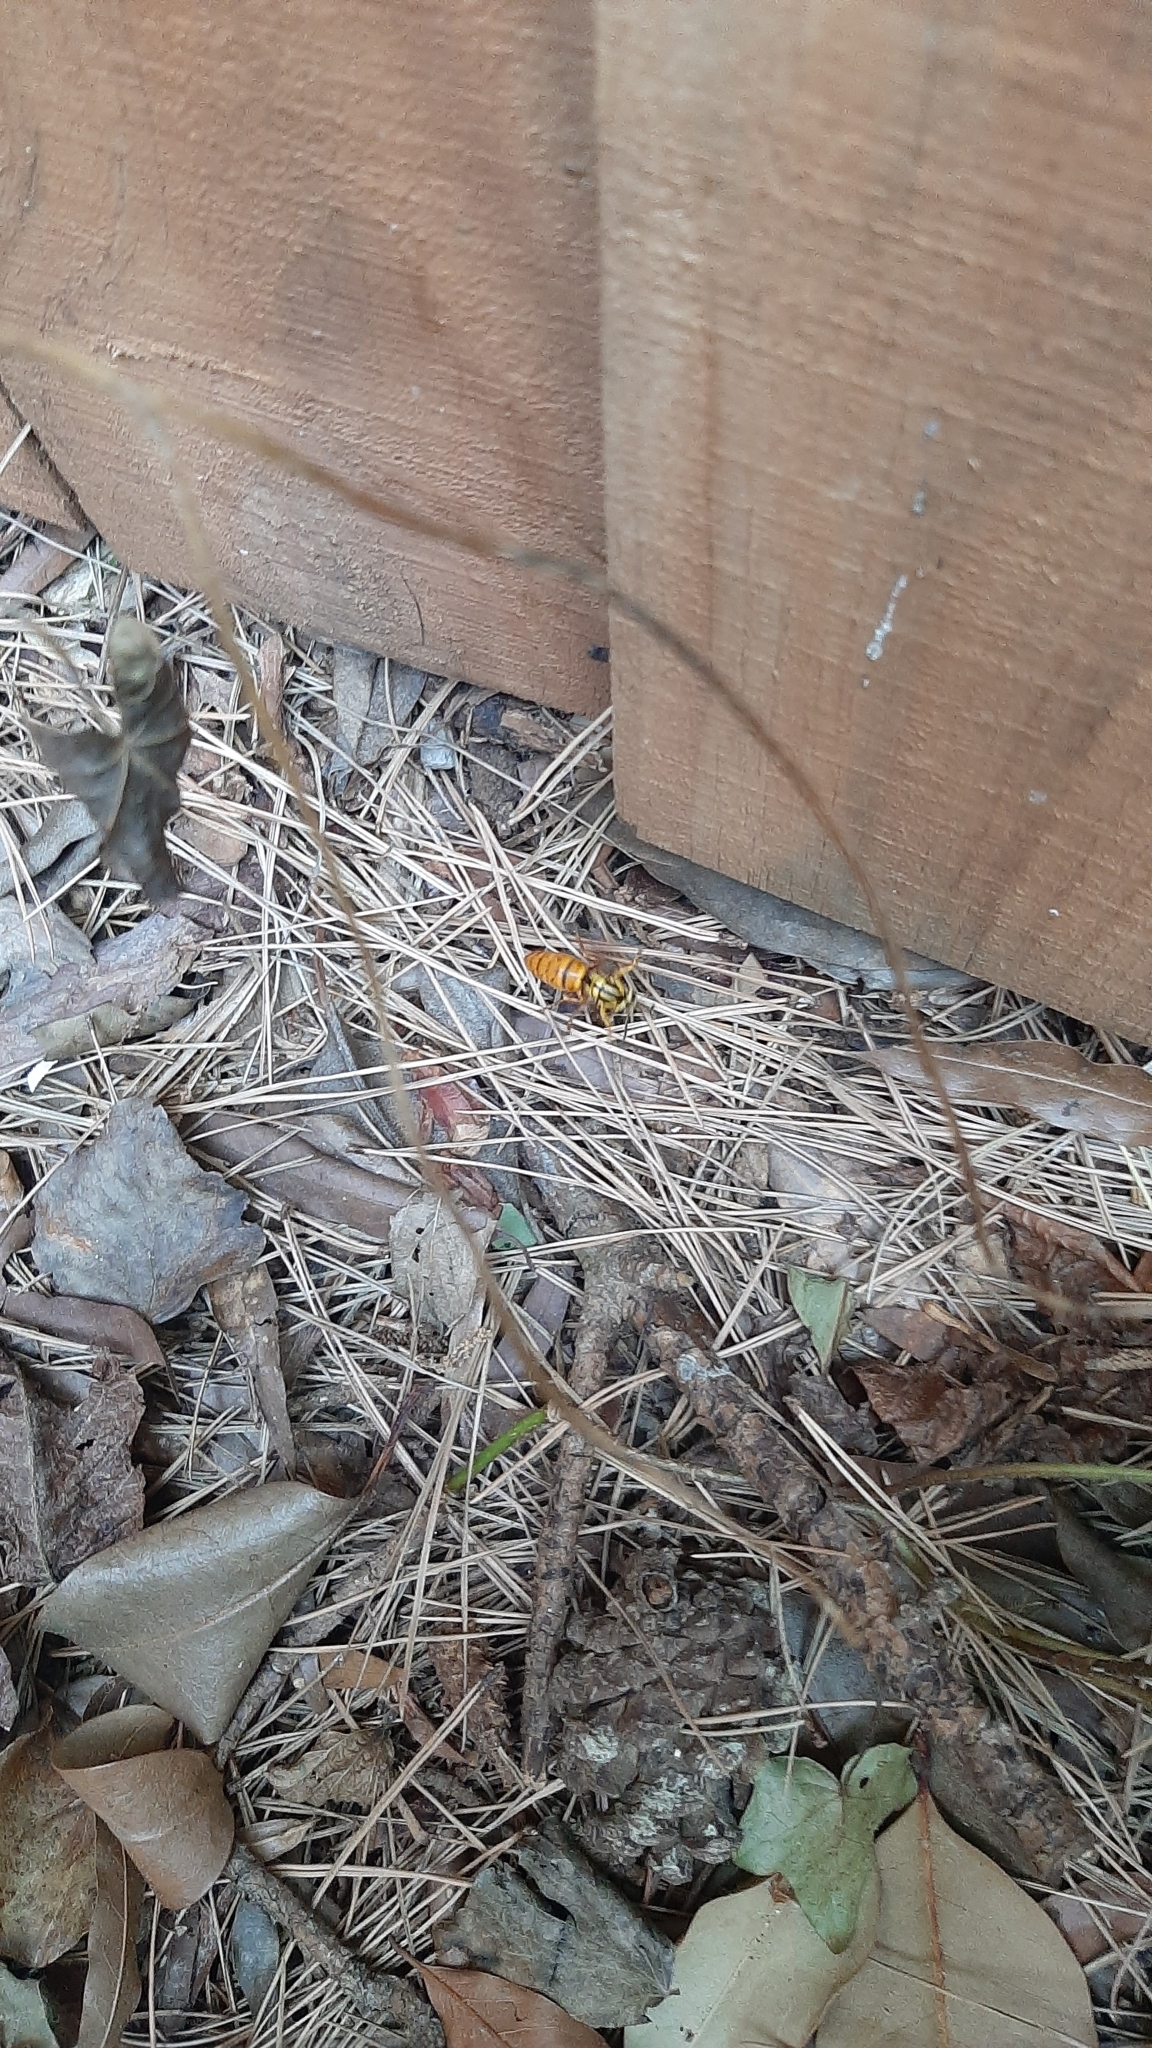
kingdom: Animalia
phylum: Arthropoda
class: Insecta
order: Hymenoptera
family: Vespidae
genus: Vespula
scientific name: Vespula squamosa
